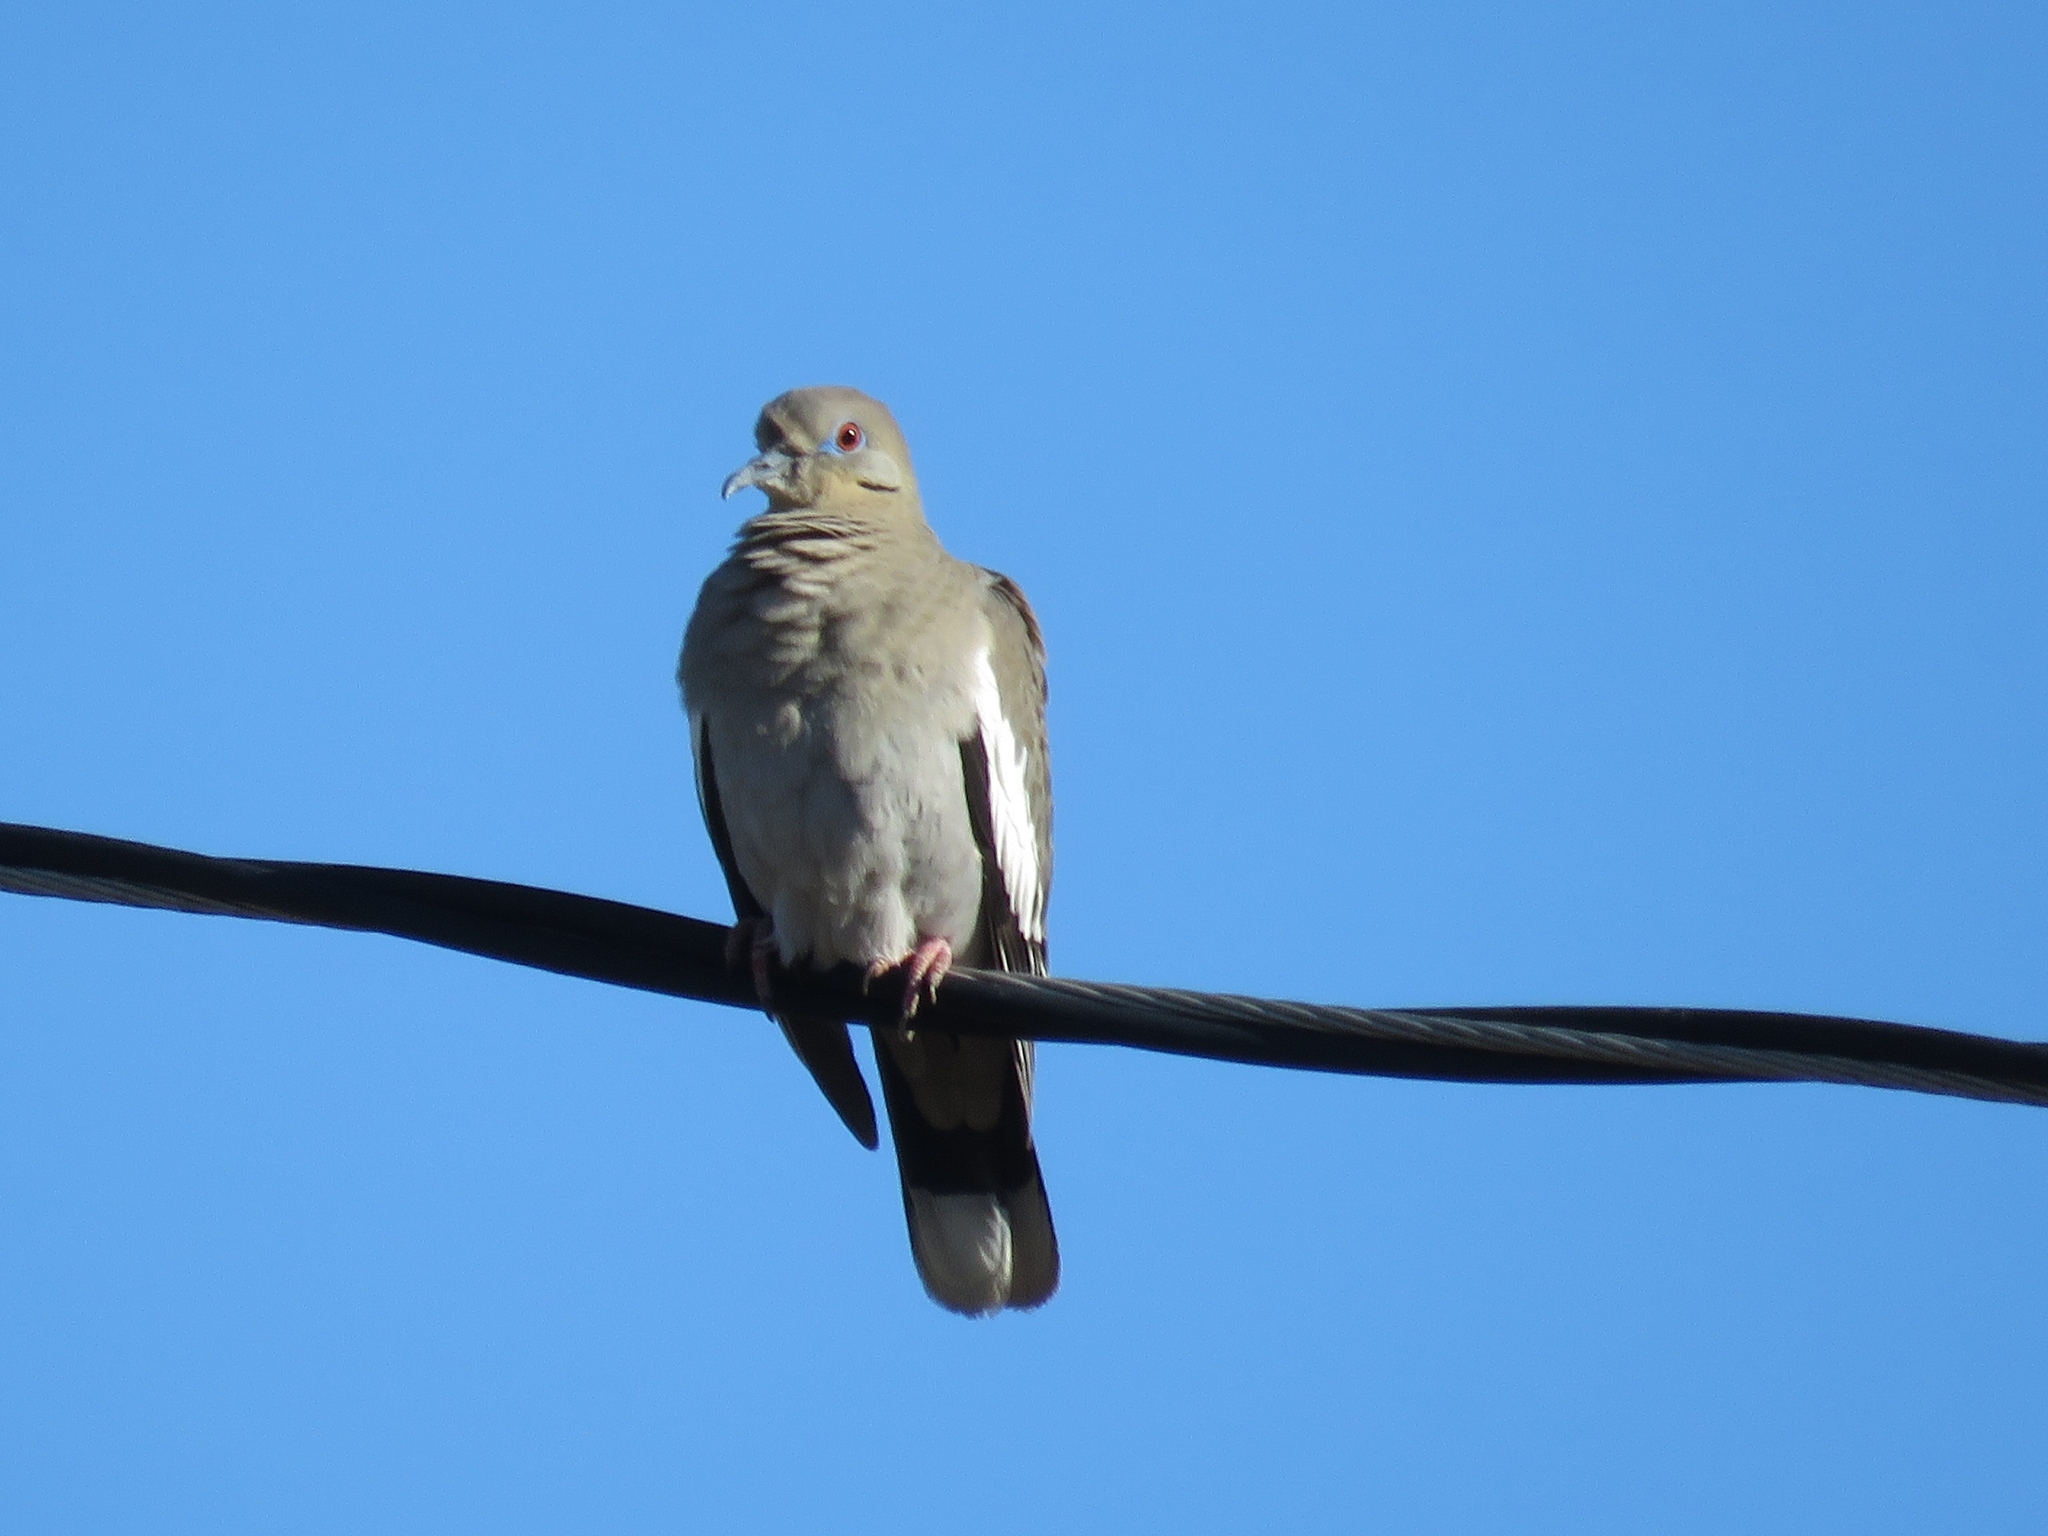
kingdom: Animalia
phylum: Chordata
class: Aves
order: Columbiformes
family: Columbidae
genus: Zenaida
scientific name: Zenaida asiatica
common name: White-winged dove
